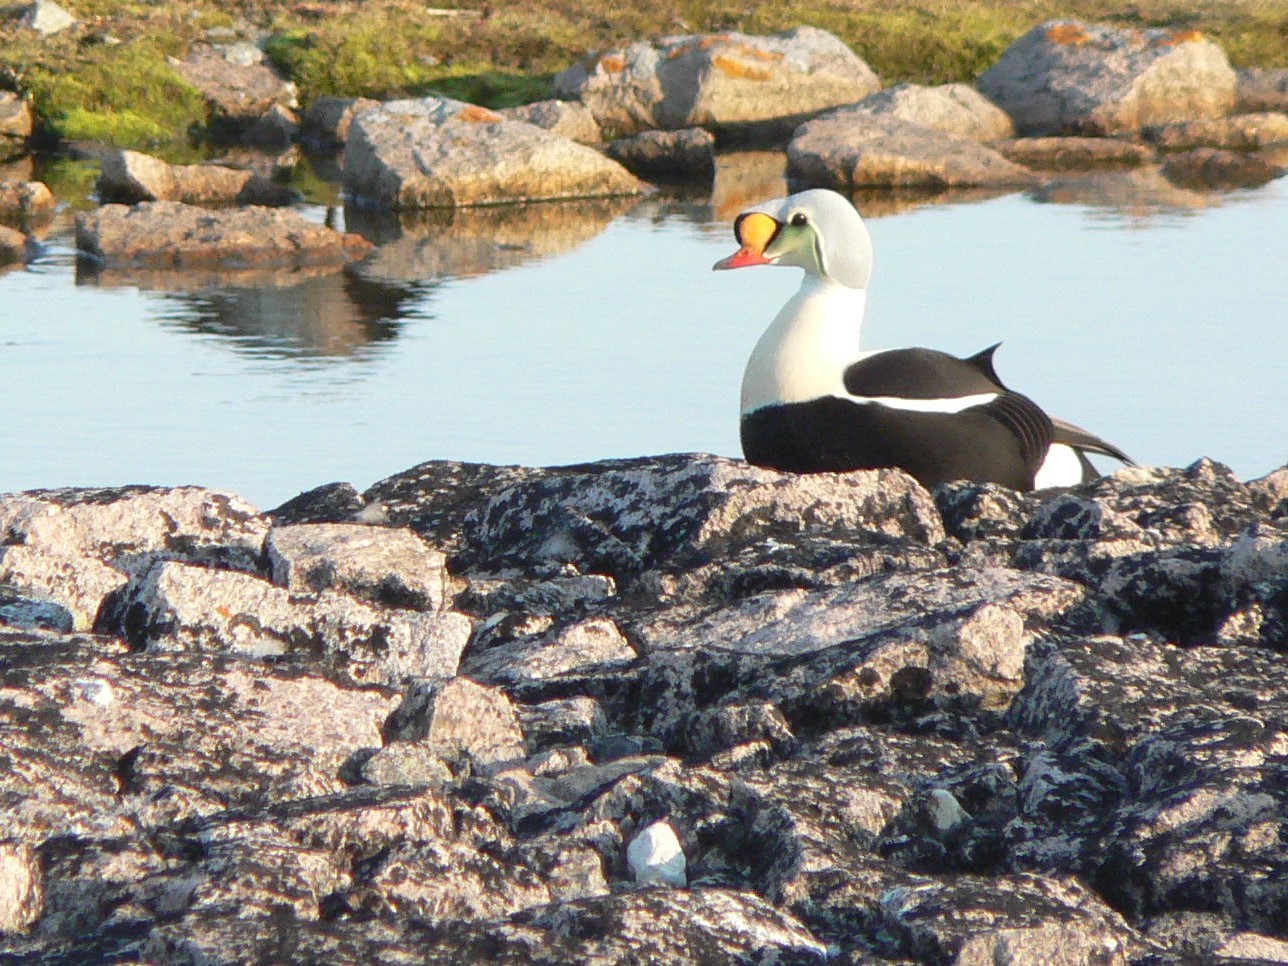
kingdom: Animalia
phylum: Chordata
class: Aves
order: Anseriformes
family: Anatidae
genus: Somateria
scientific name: Somateria spectabilis
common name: King eider
